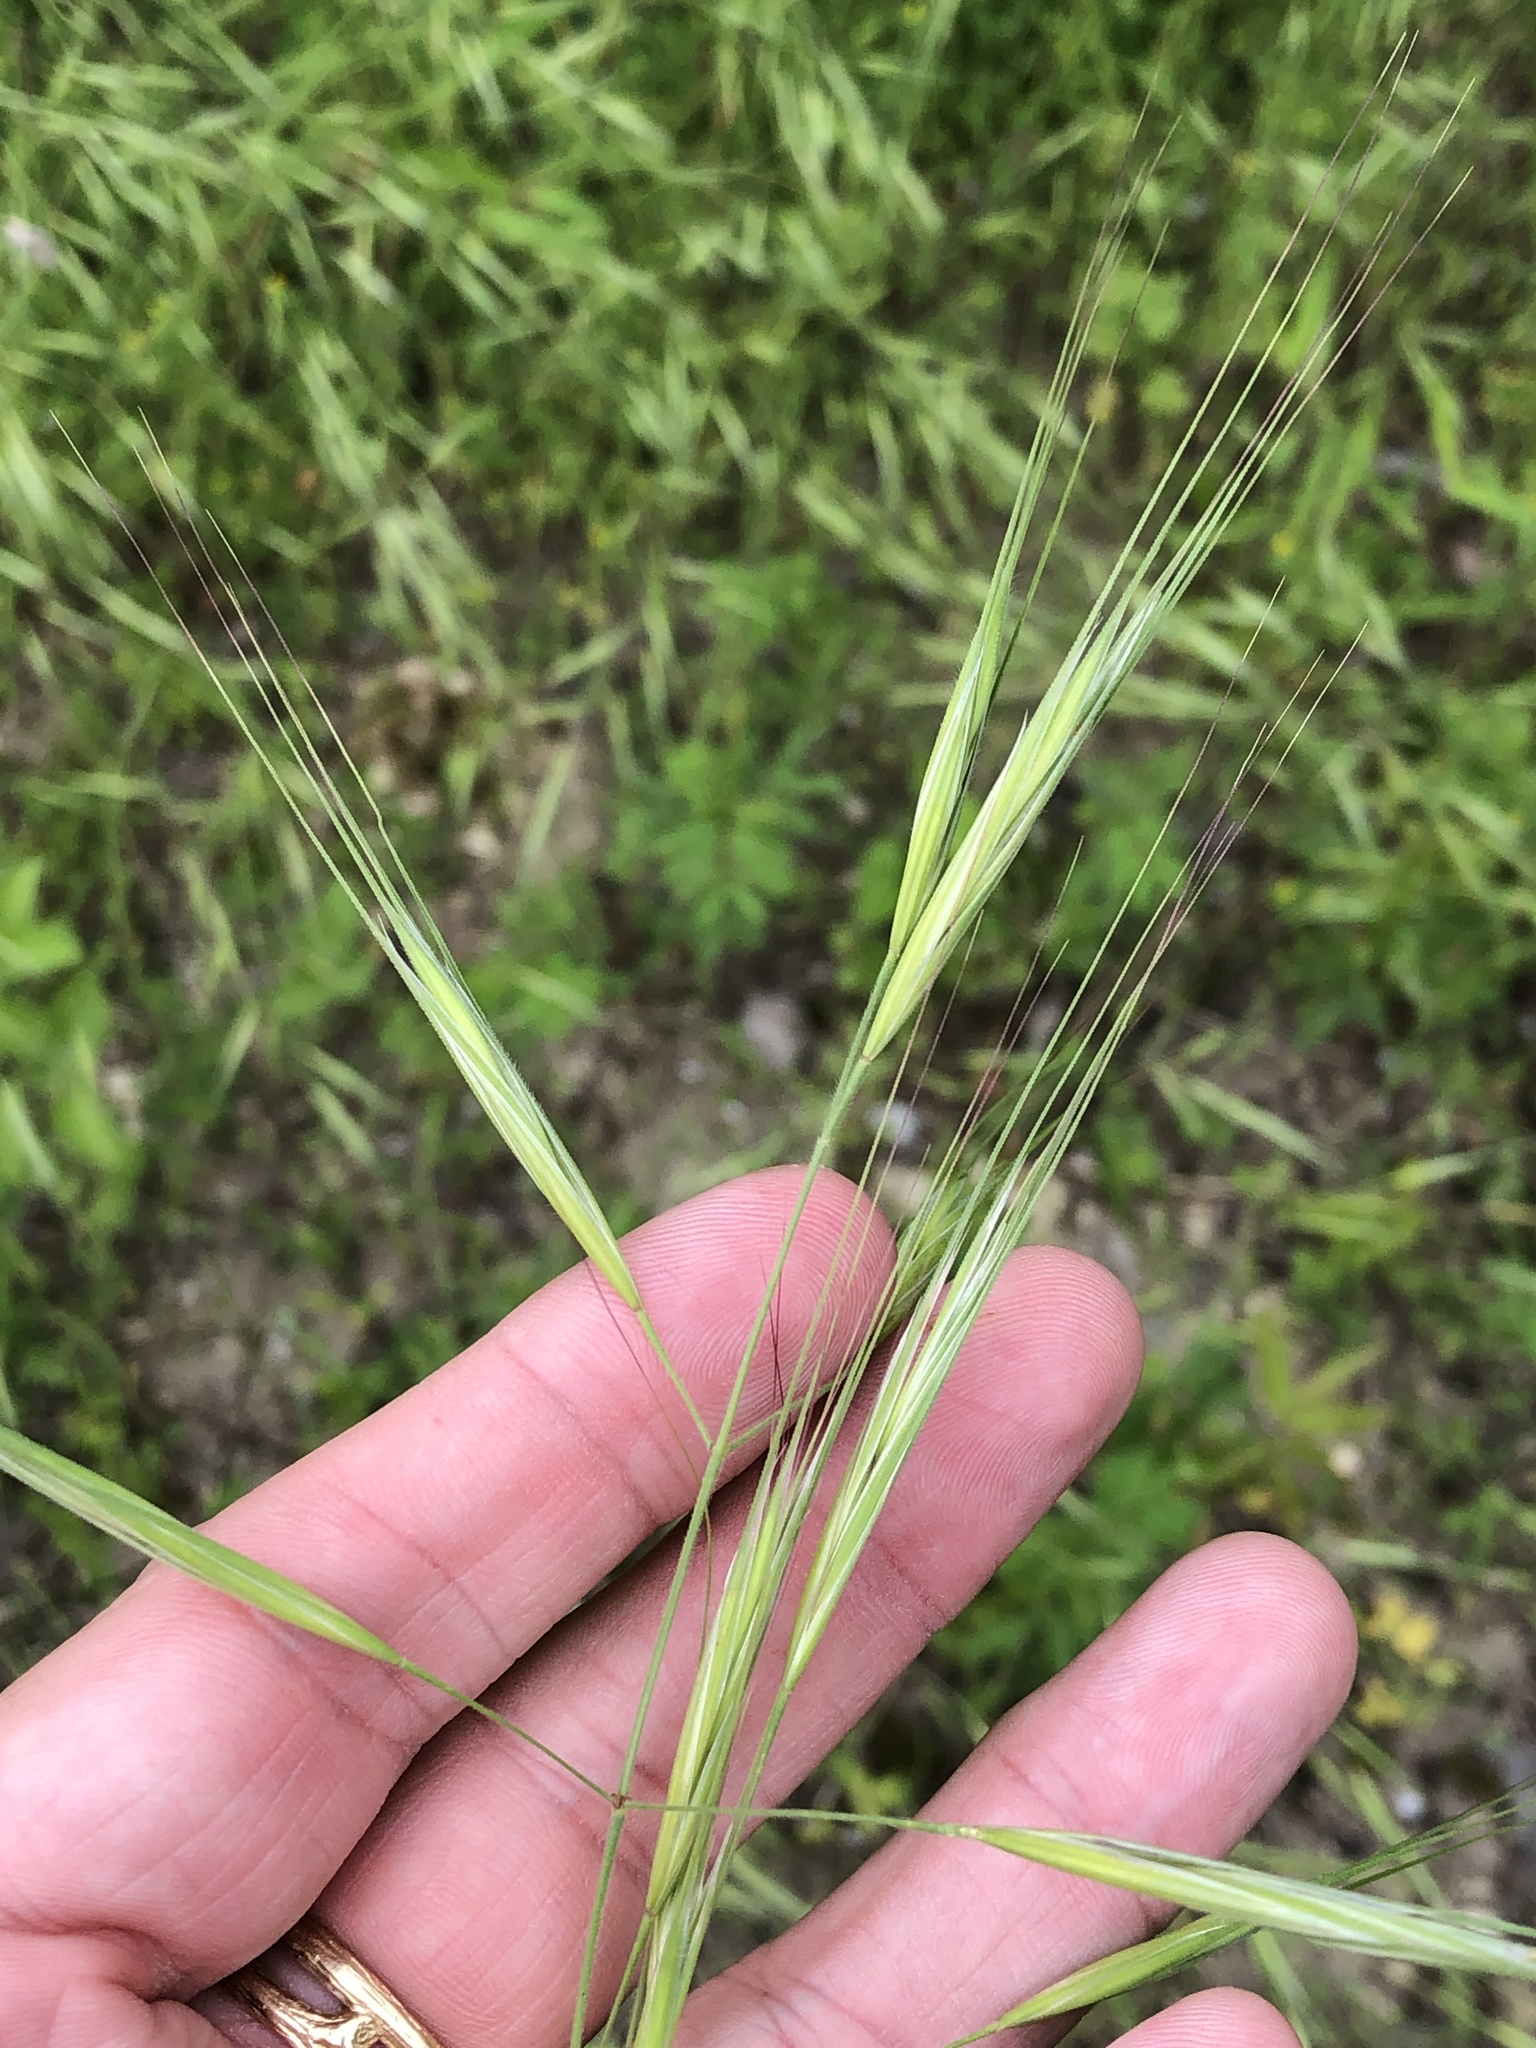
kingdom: Plantae
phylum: Tracheophyta
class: Liliopsida
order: Poales
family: Poaceae
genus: Bromus
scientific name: Bromus diandrus
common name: Ripgut brome
